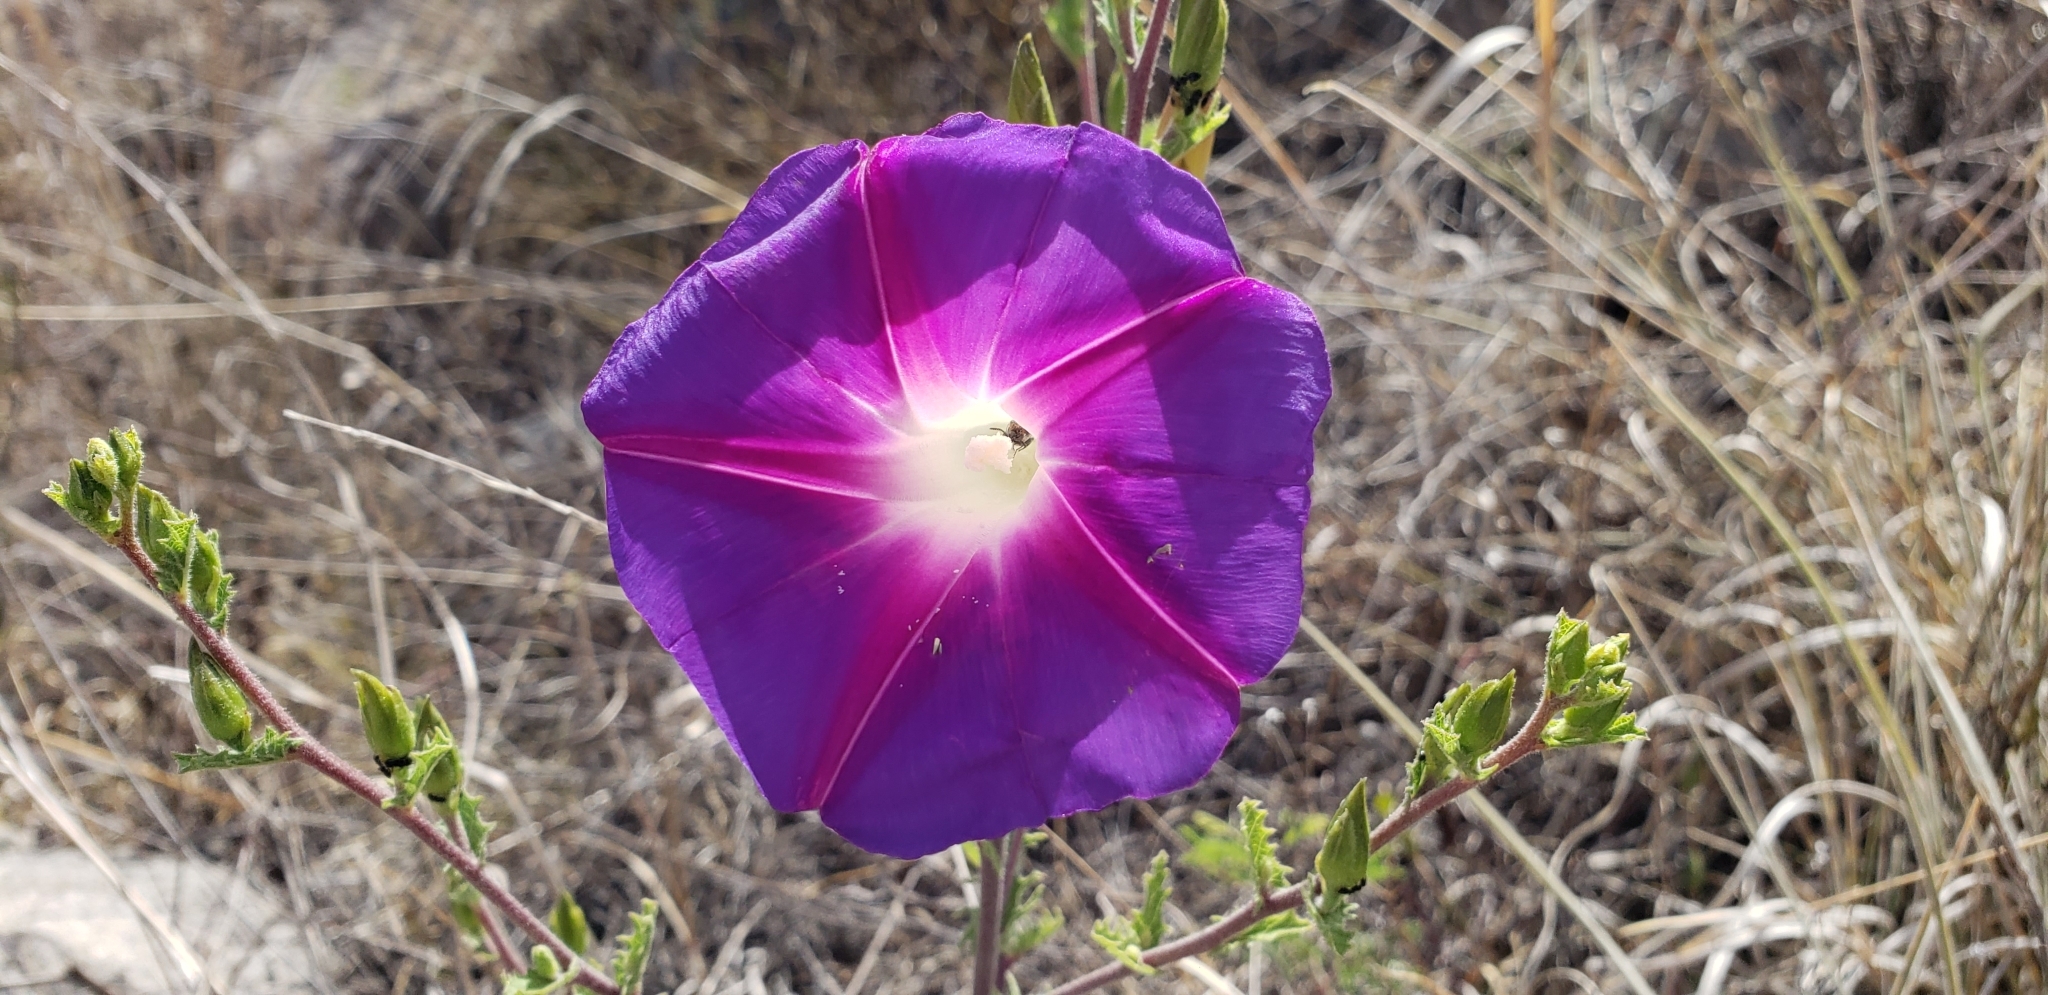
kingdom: Plantae
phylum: Tracheophyta
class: Magnoliopsida
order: Solanales
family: Convolvulaceae
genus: Ipomoea
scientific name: Ipomoea stans
